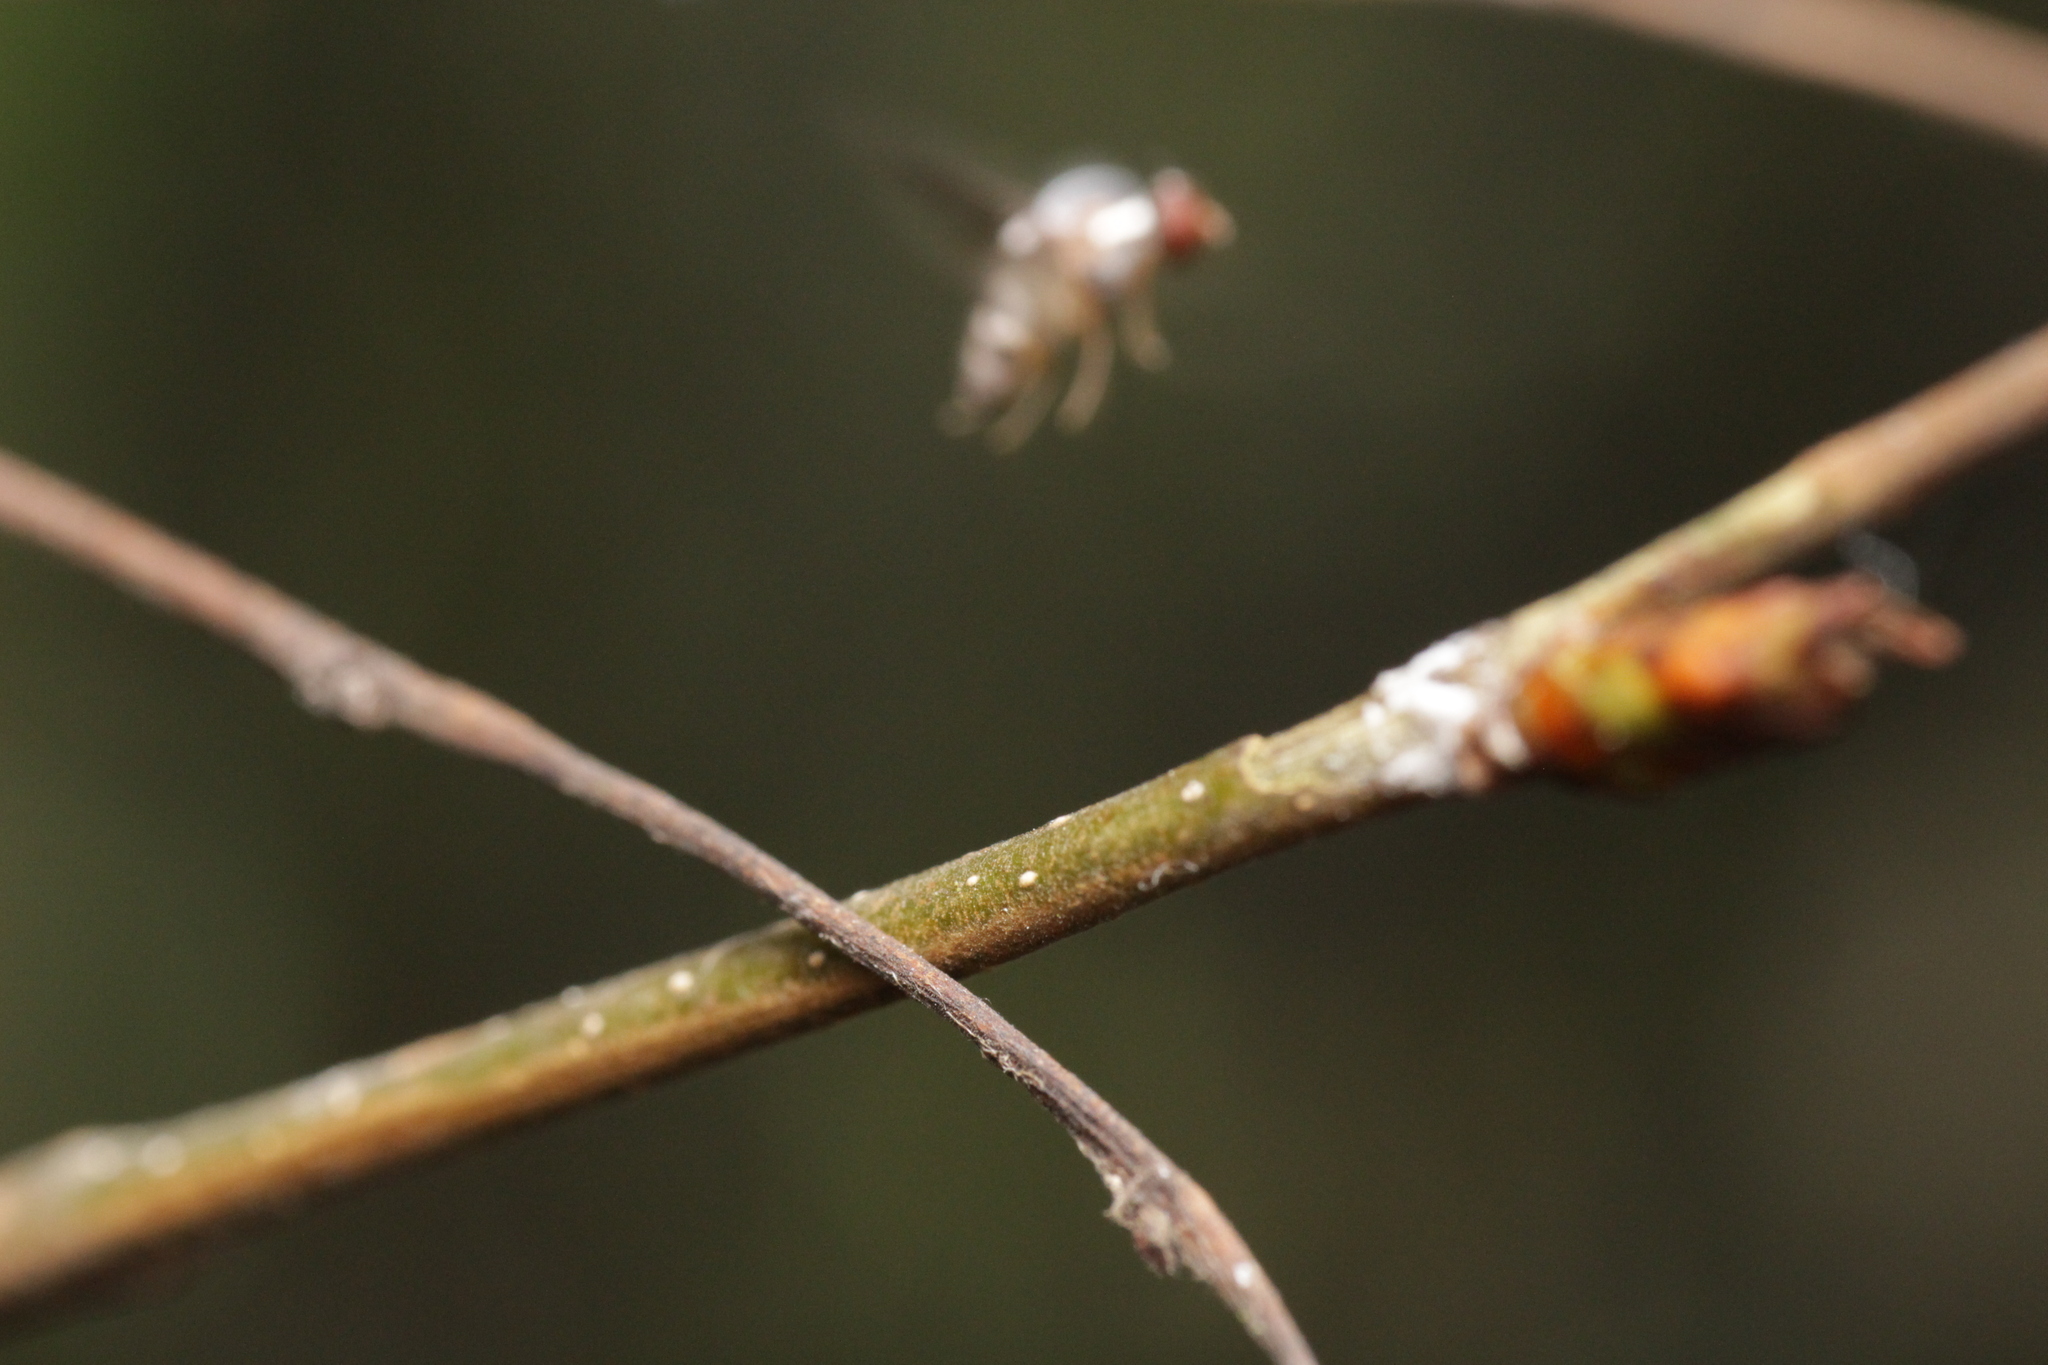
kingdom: Animalia
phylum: Arthropoda
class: Insecta
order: Diptera
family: Drosophilidae
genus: Leucophenga
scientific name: Leucophenga maculata
